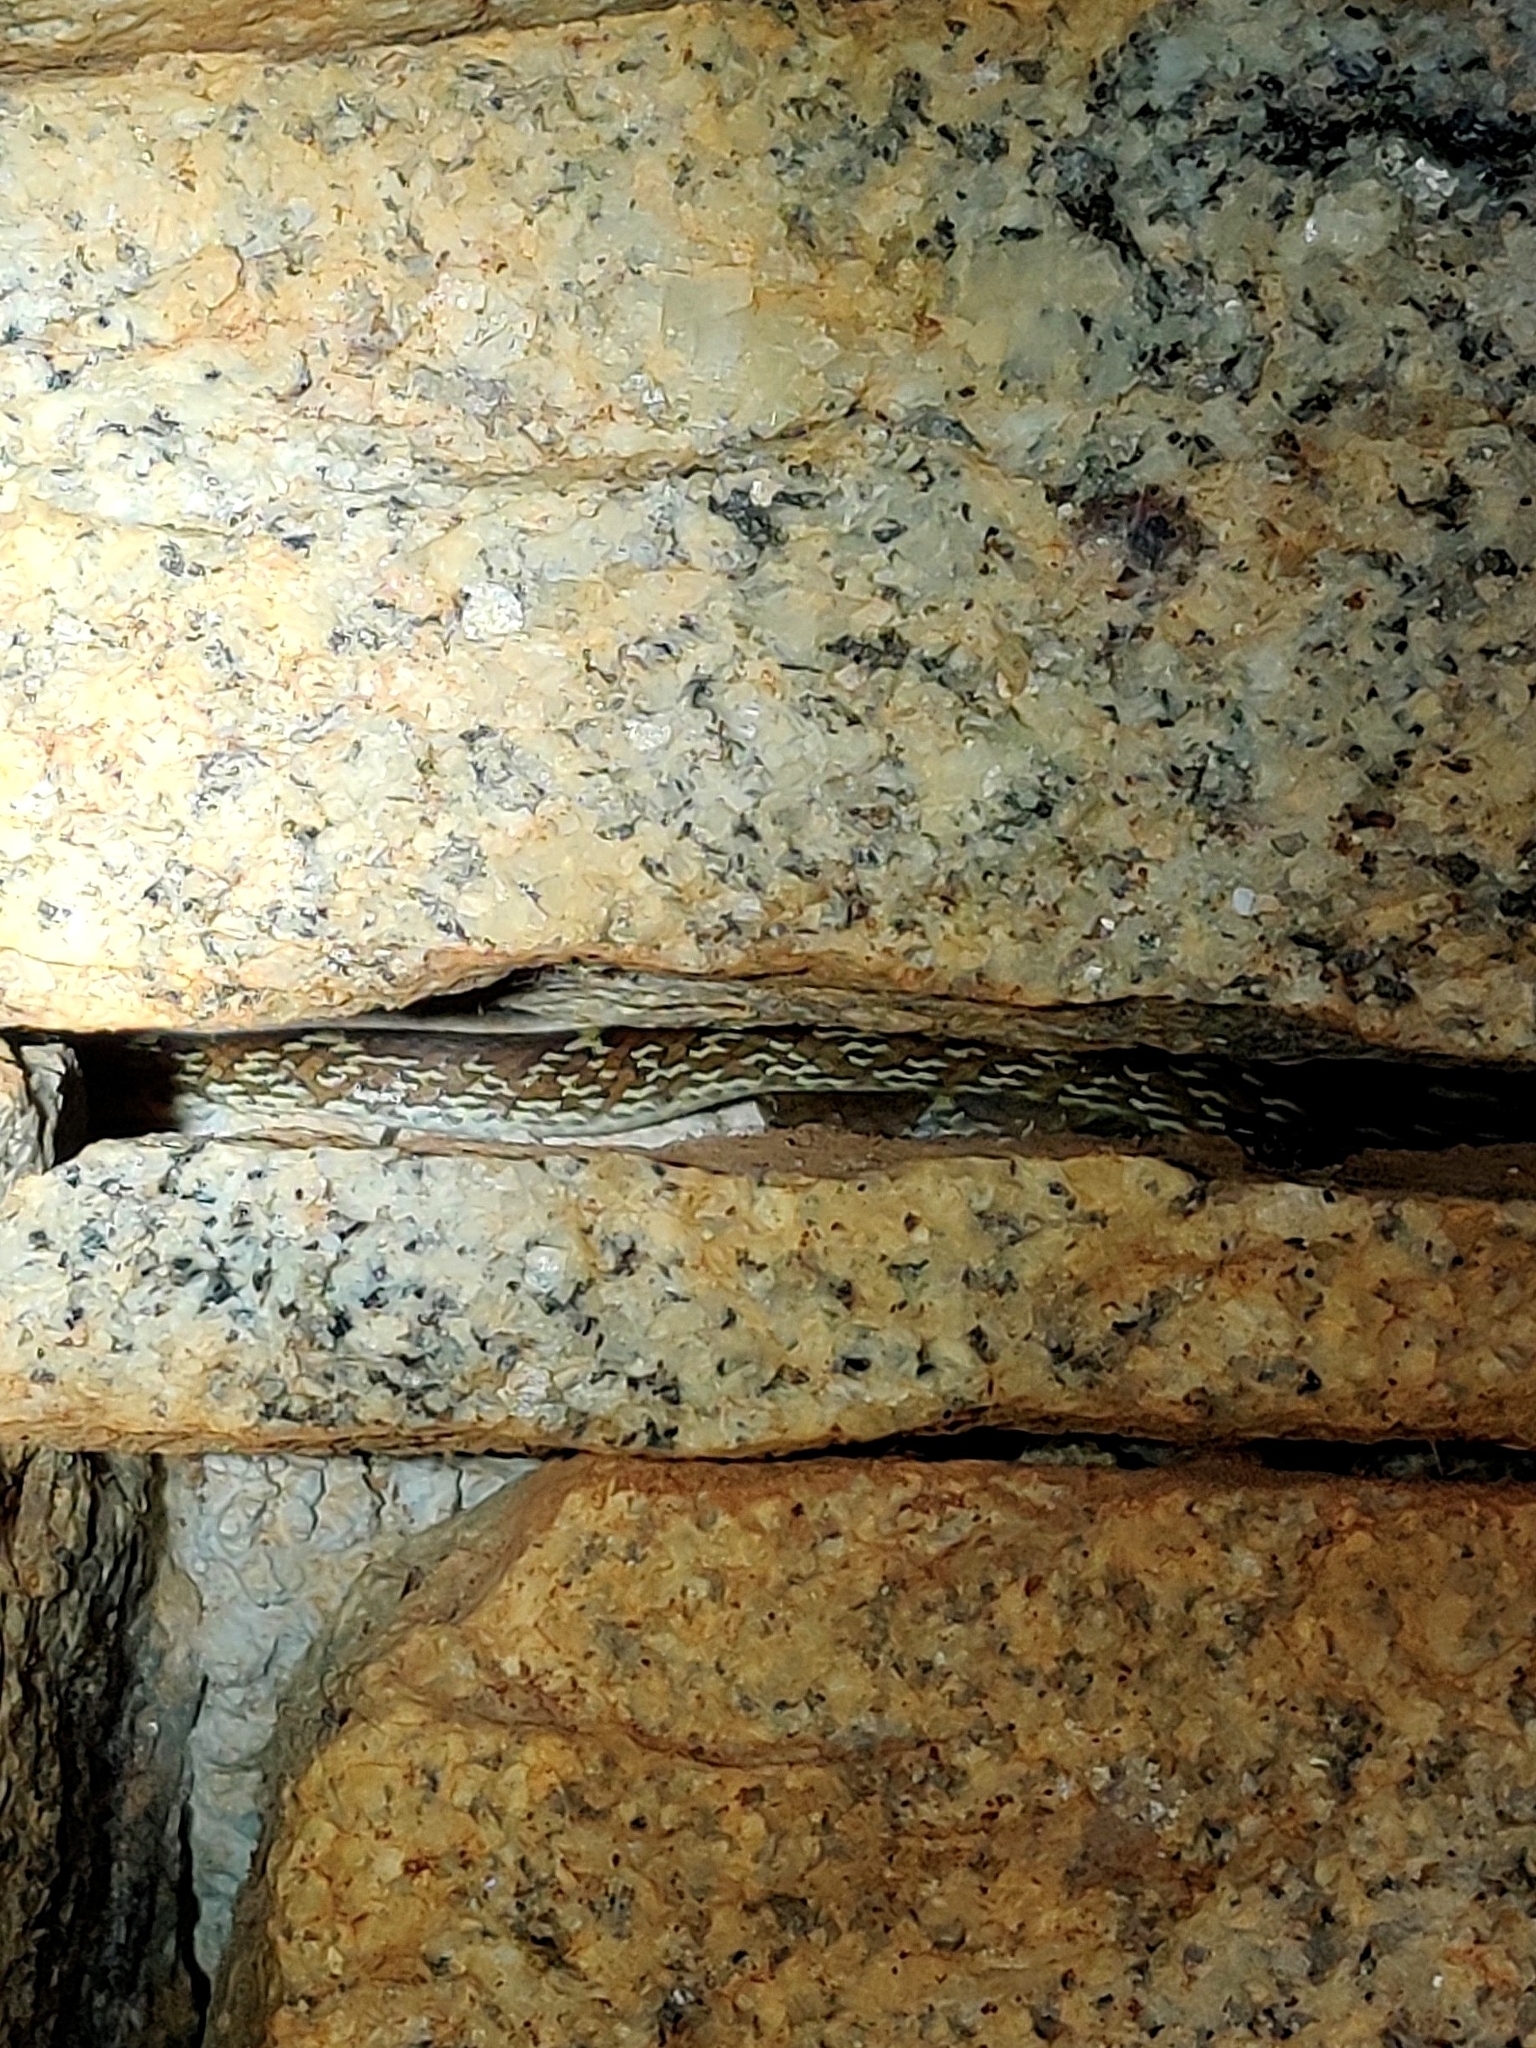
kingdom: Animalia
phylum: Chordata
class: Squamata
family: Colubridae
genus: Lycodon
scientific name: Lycodon fasciolatus
